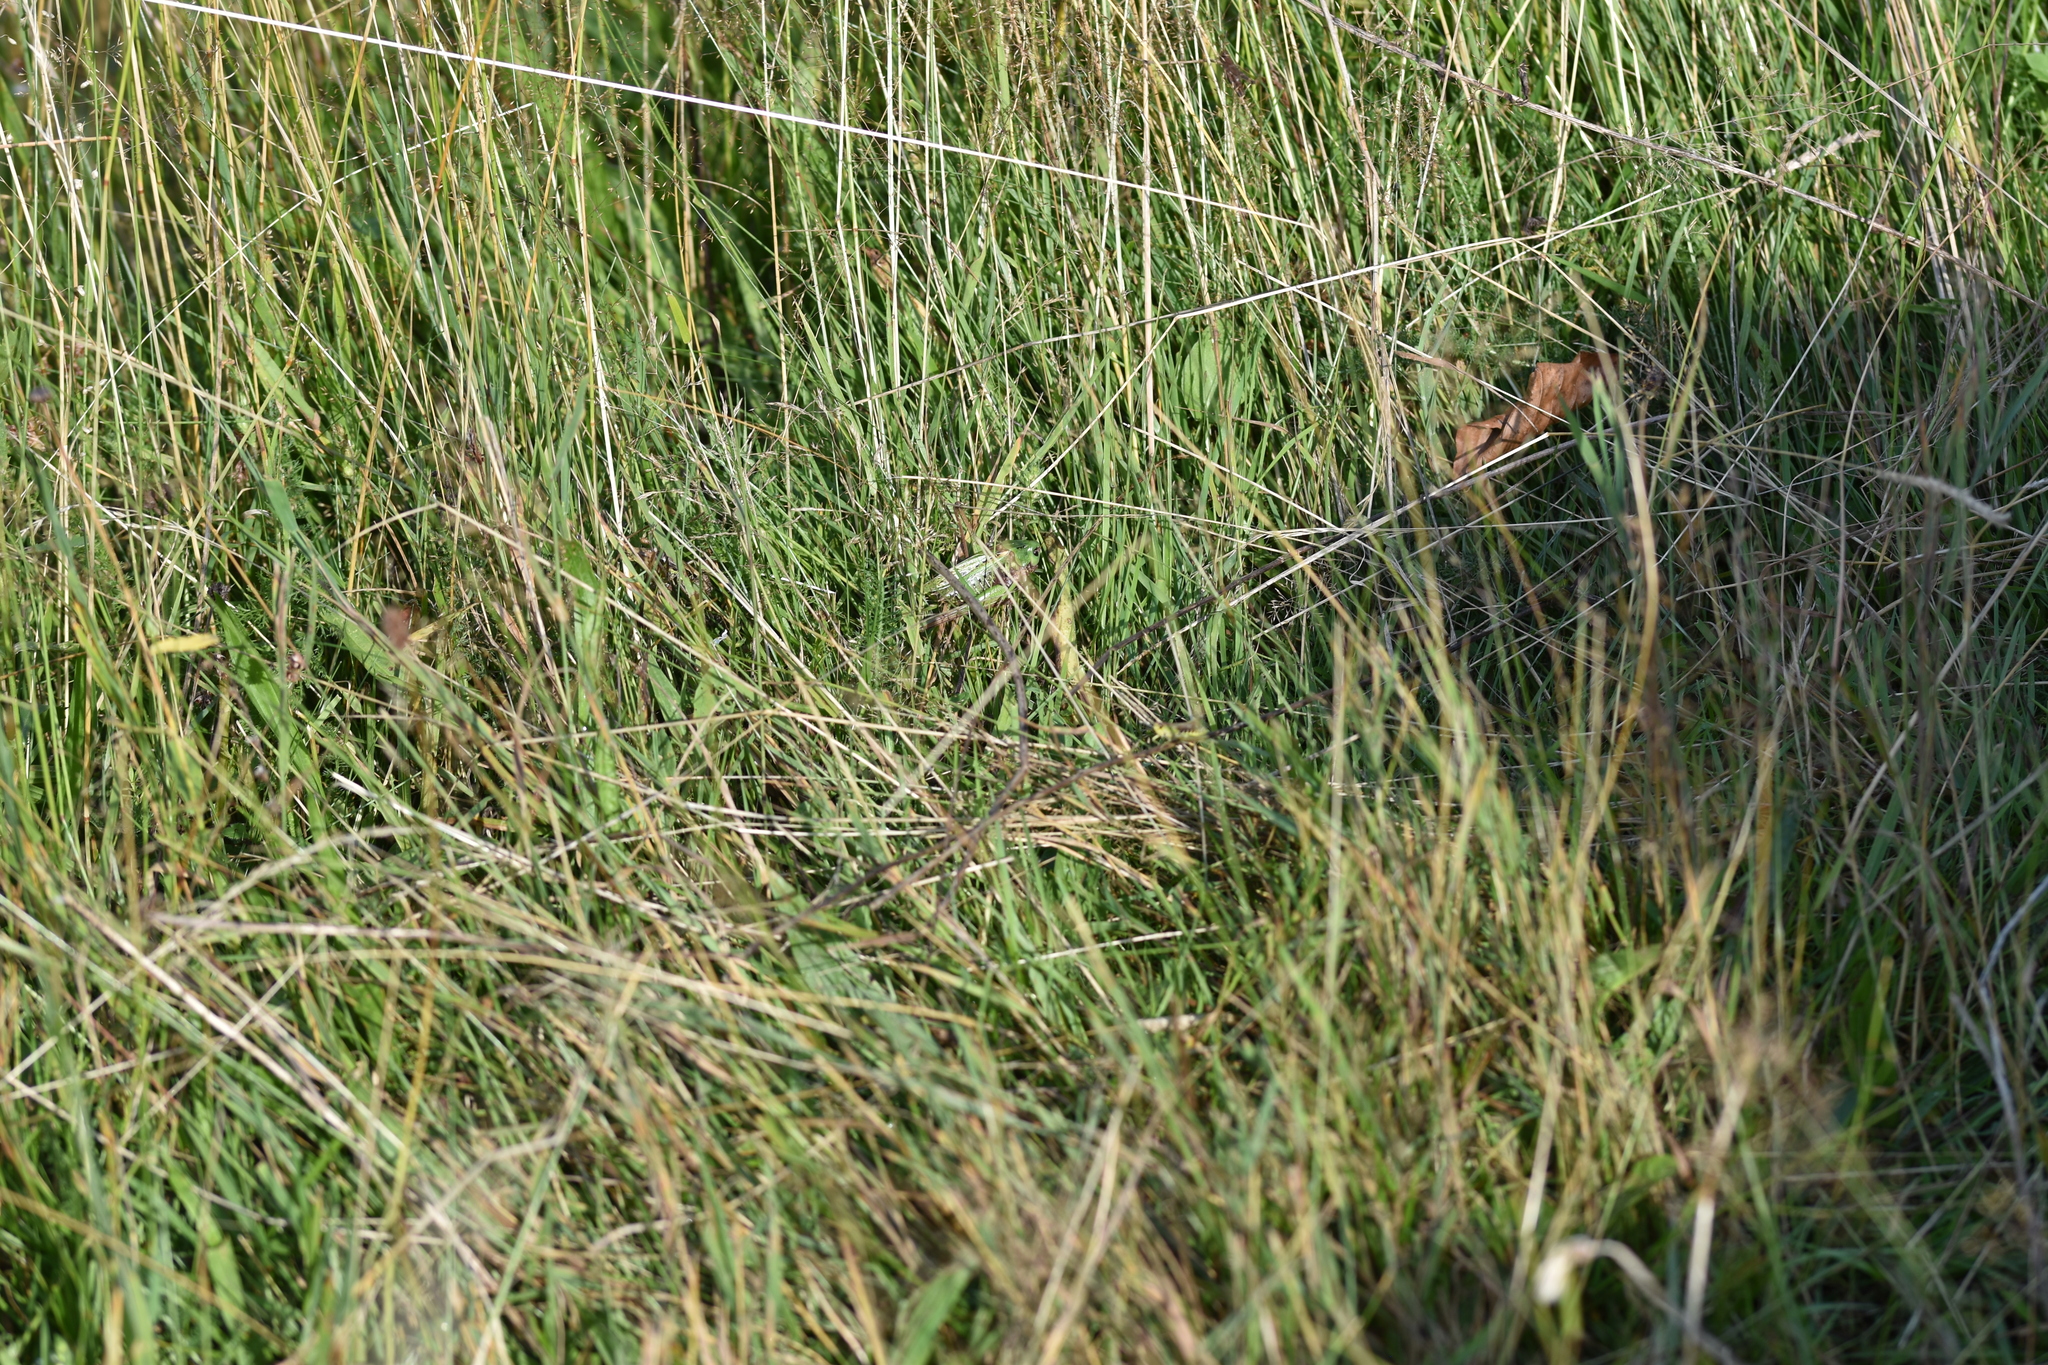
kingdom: Animalia
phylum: Arthropoda
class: Insecta
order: Orthoptera
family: Tettigoniidae
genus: Decticus
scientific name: Decticus verrucivorus
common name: Wart-biter
